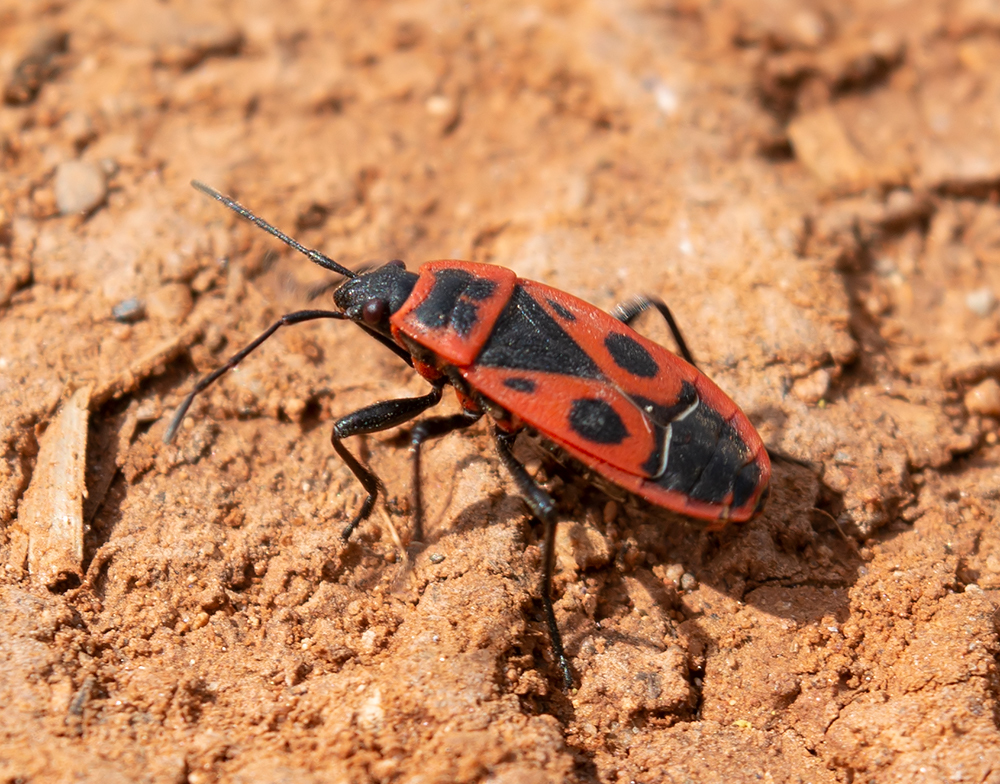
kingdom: Animalia
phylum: Arthropoda
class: Insecta
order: Hemiptera
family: Pyrrhocoridae
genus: Pyrrhocoris
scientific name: Pyrrhocoris apterus
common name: Firebug
